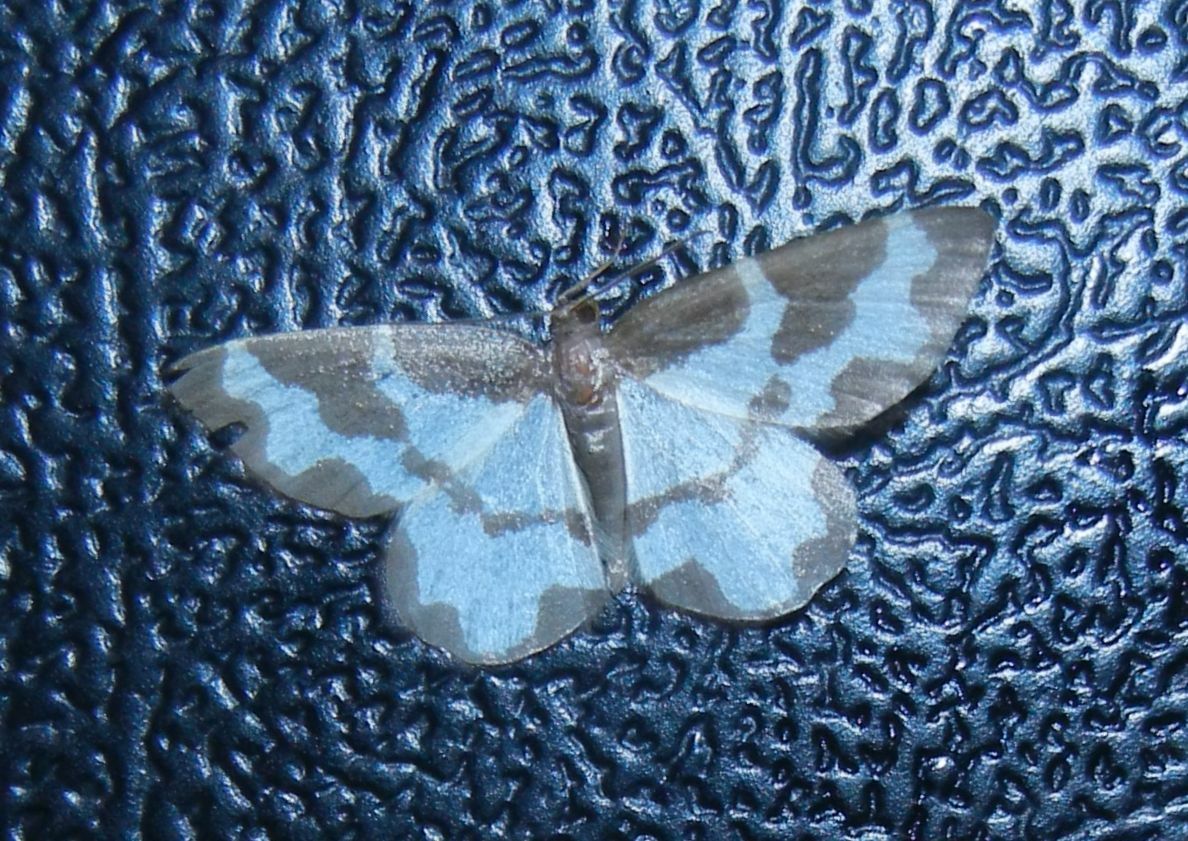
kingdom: Animalia
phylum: Arthropoda
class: Insecta
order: Lepidoptera
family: Geometridae
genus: Lomaspilis
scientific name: Lomaspilis marginata
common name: Clouded border
